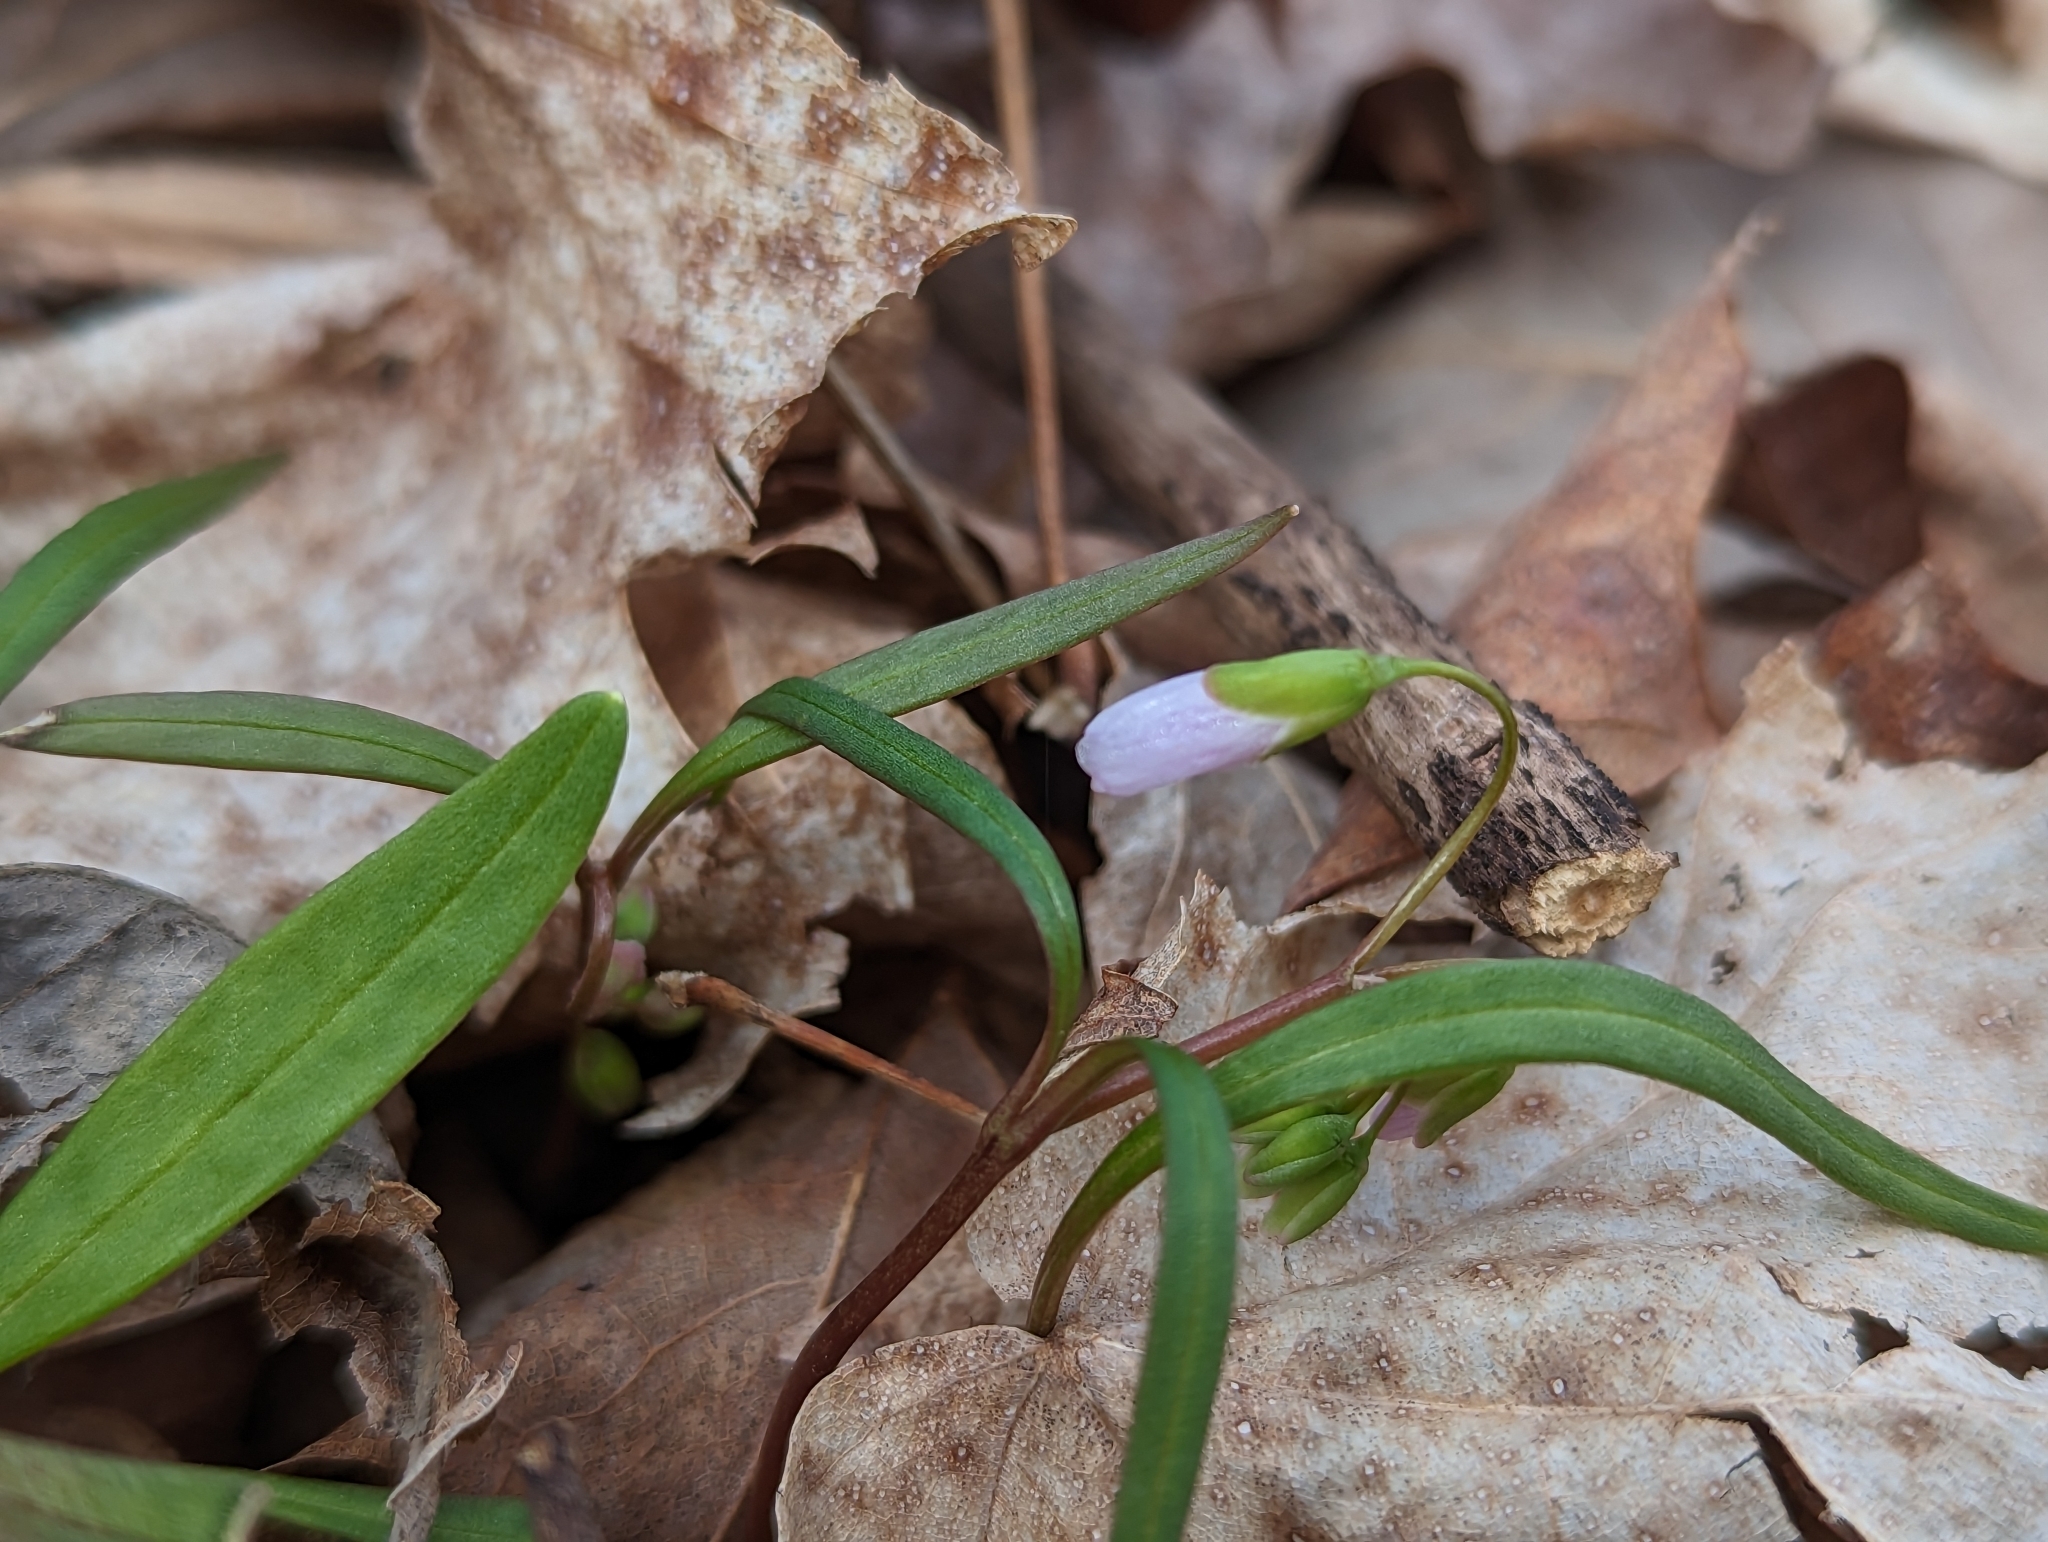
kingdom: Plantae
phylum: Tracheophyta
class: Magnoliopsida
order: Caryophyllales
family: Montiaceae
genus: Claytonia
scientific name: Claytonia virginica
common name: Virginia springbeauty
